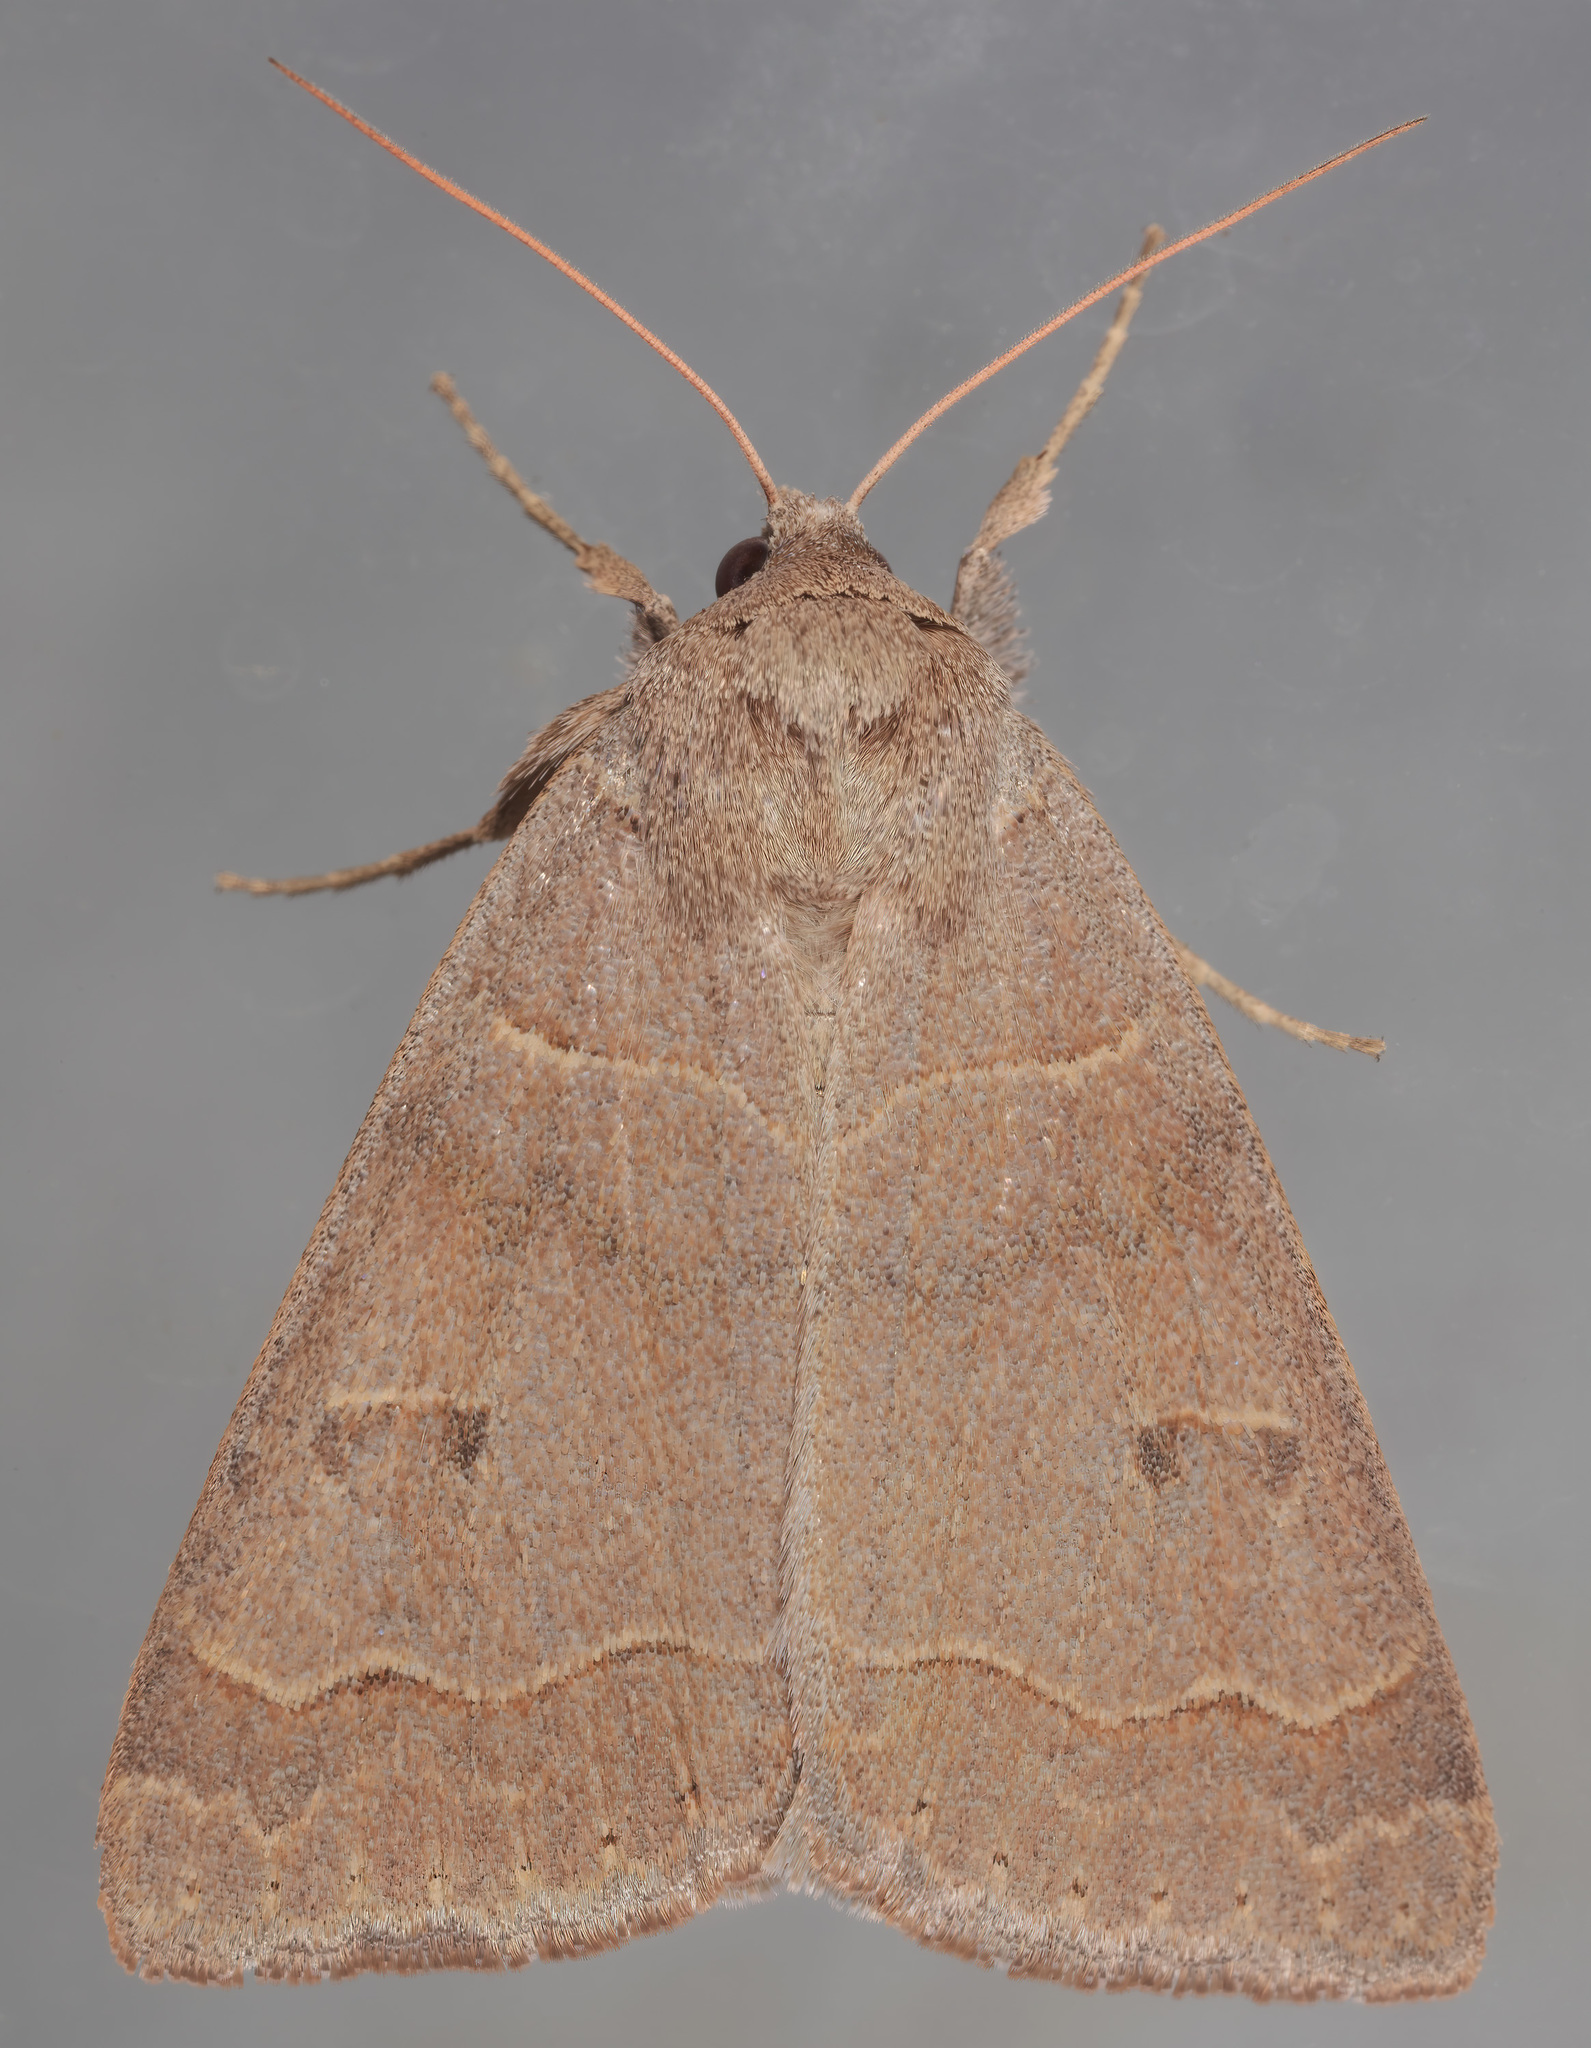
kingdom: Animalia
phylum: Arthropoda
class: Insecta
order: Lepidoptera
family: Erebidae
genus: Phoberia
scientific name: Phoberia atomaris
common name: Common oak moth
